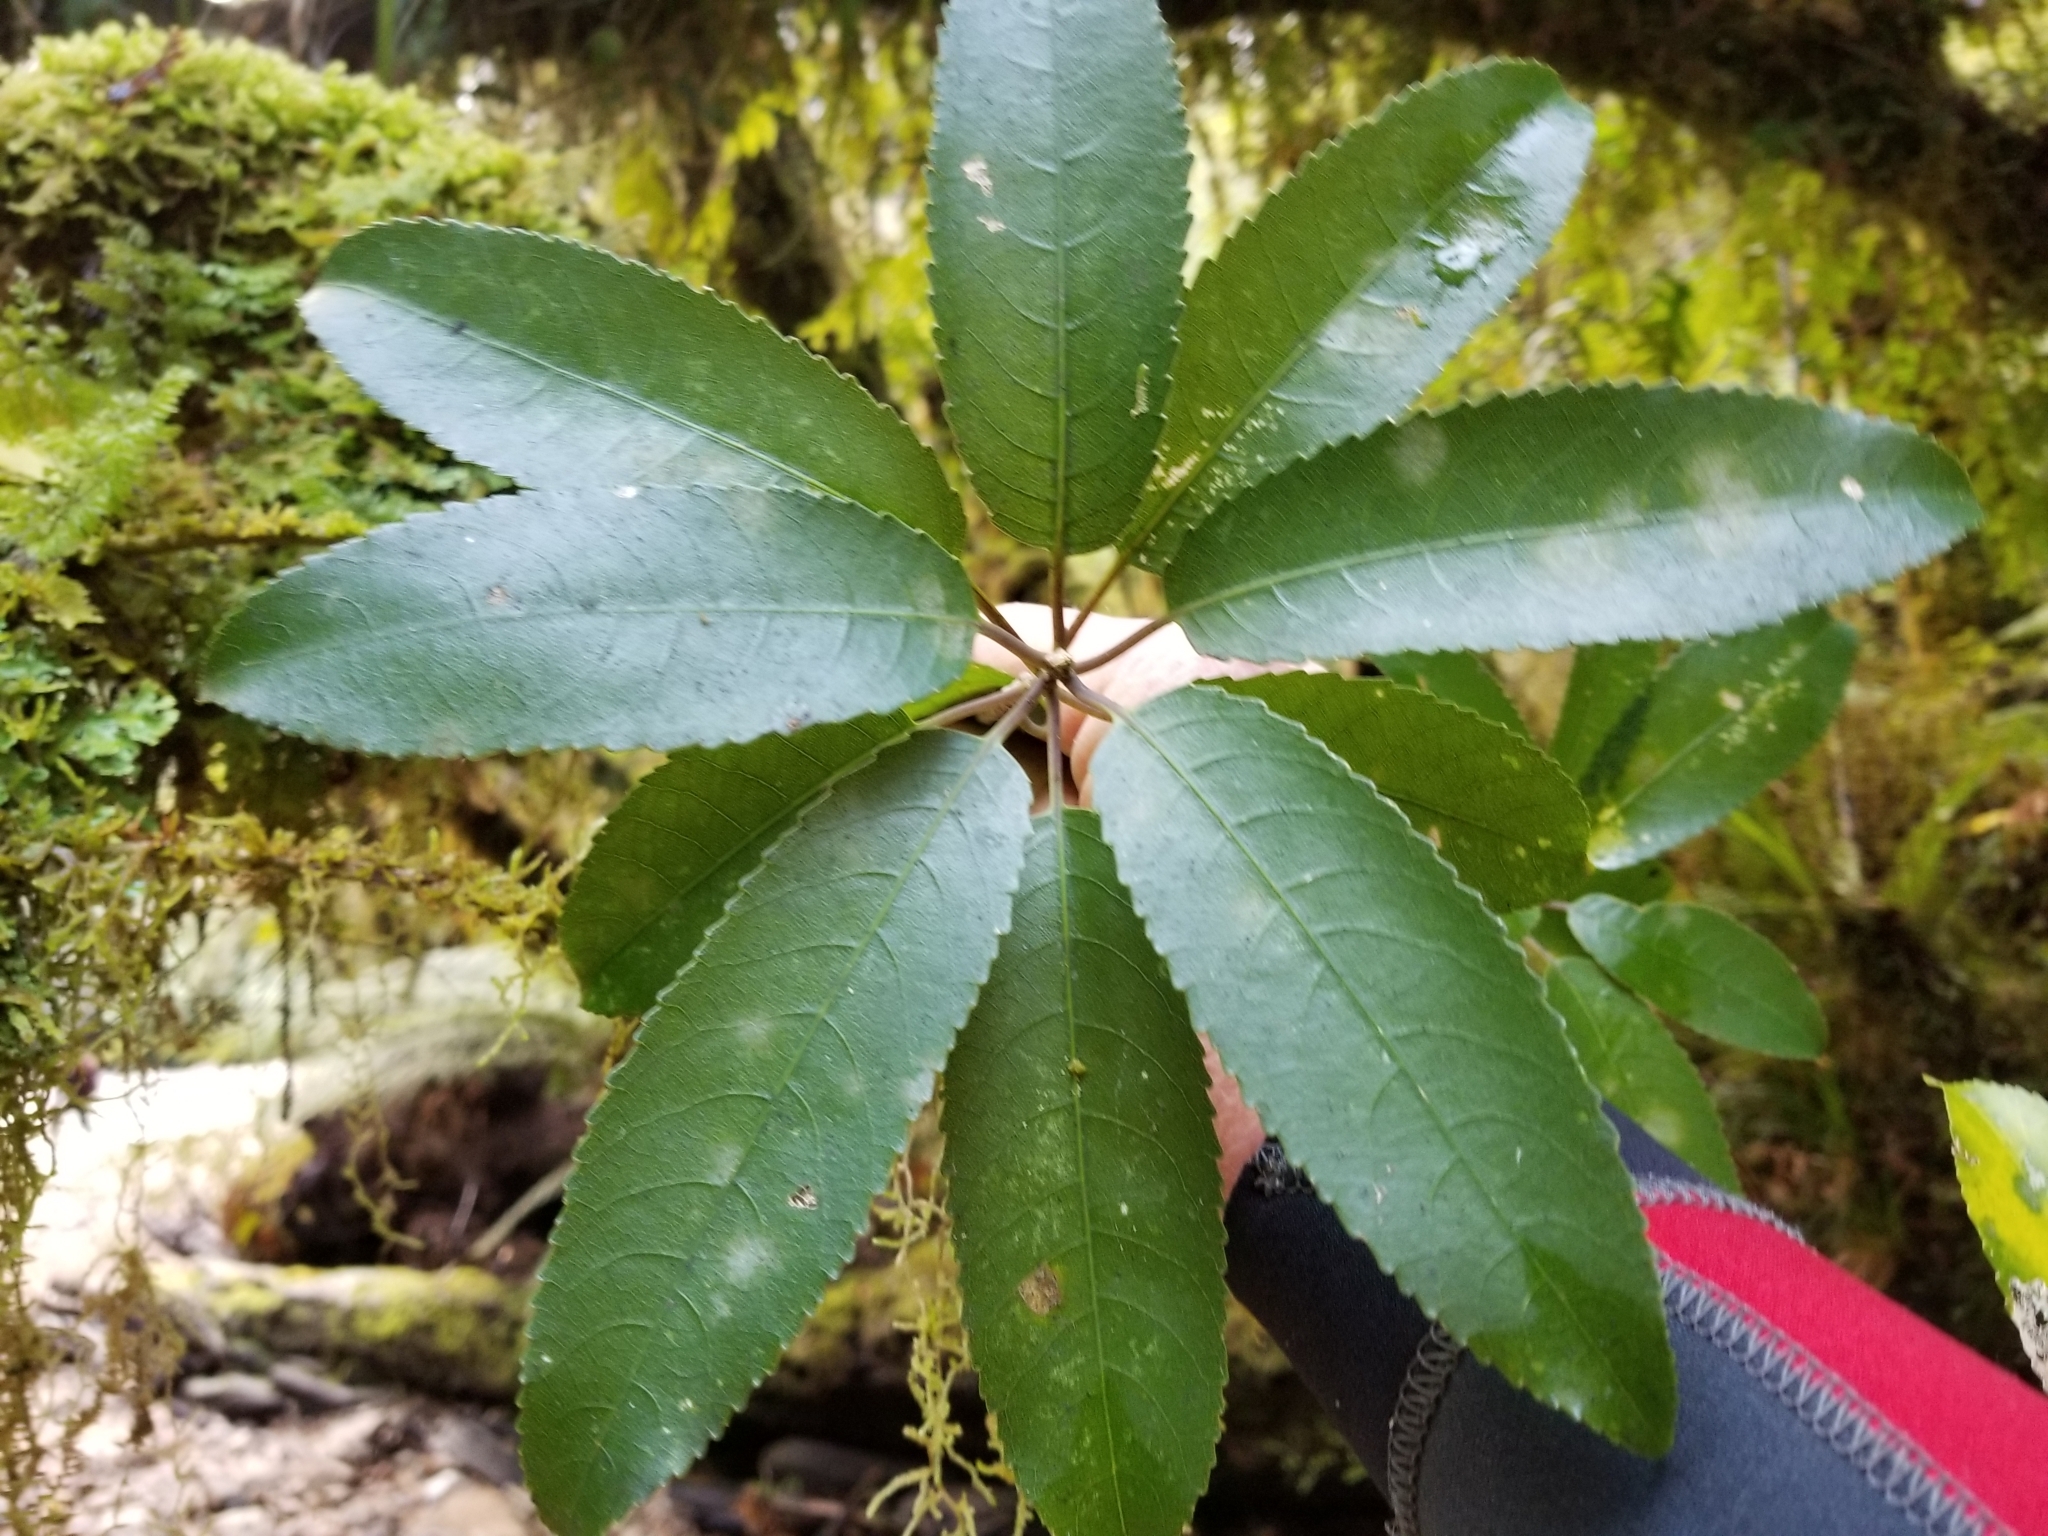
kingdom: Plantae
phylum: Tracheophyta
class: Magnoliopsida
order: Malpighiales
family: Violaceae
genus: Melicytus
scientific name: Melicytus ramiflorus
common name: Mahoe
